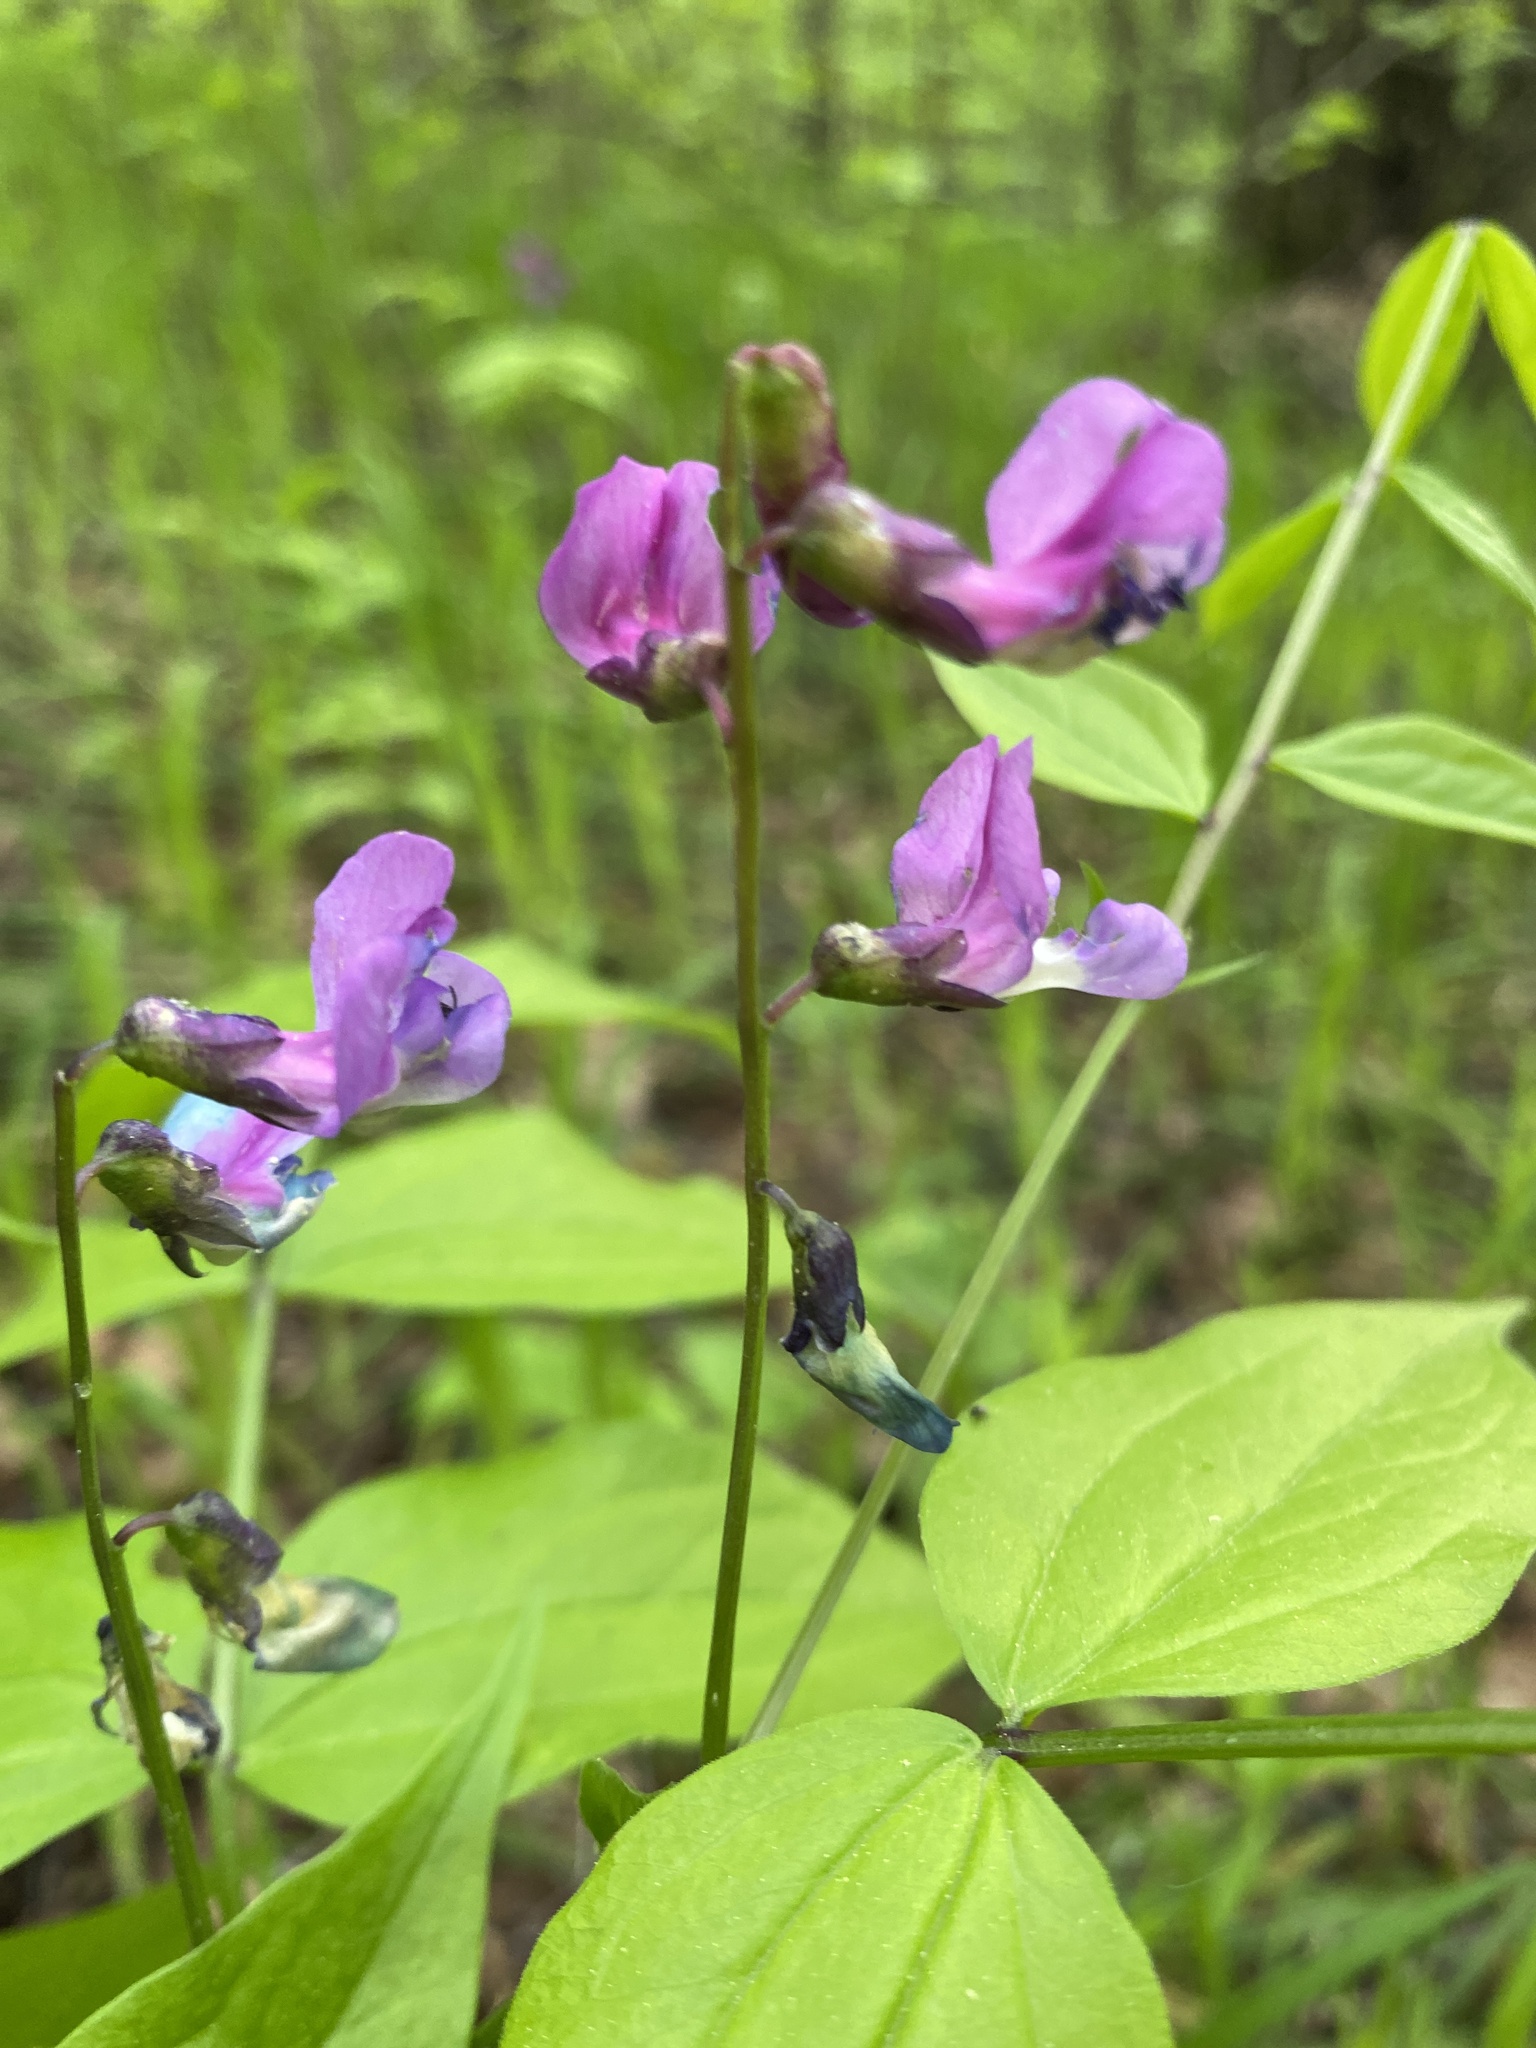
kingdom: Plantae
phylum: Tracheophyta
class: Magnoliopsida
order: Fabales
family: Fabaceae
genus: Lathyrus
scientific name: Lathyrus vernus
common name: Spring pea
